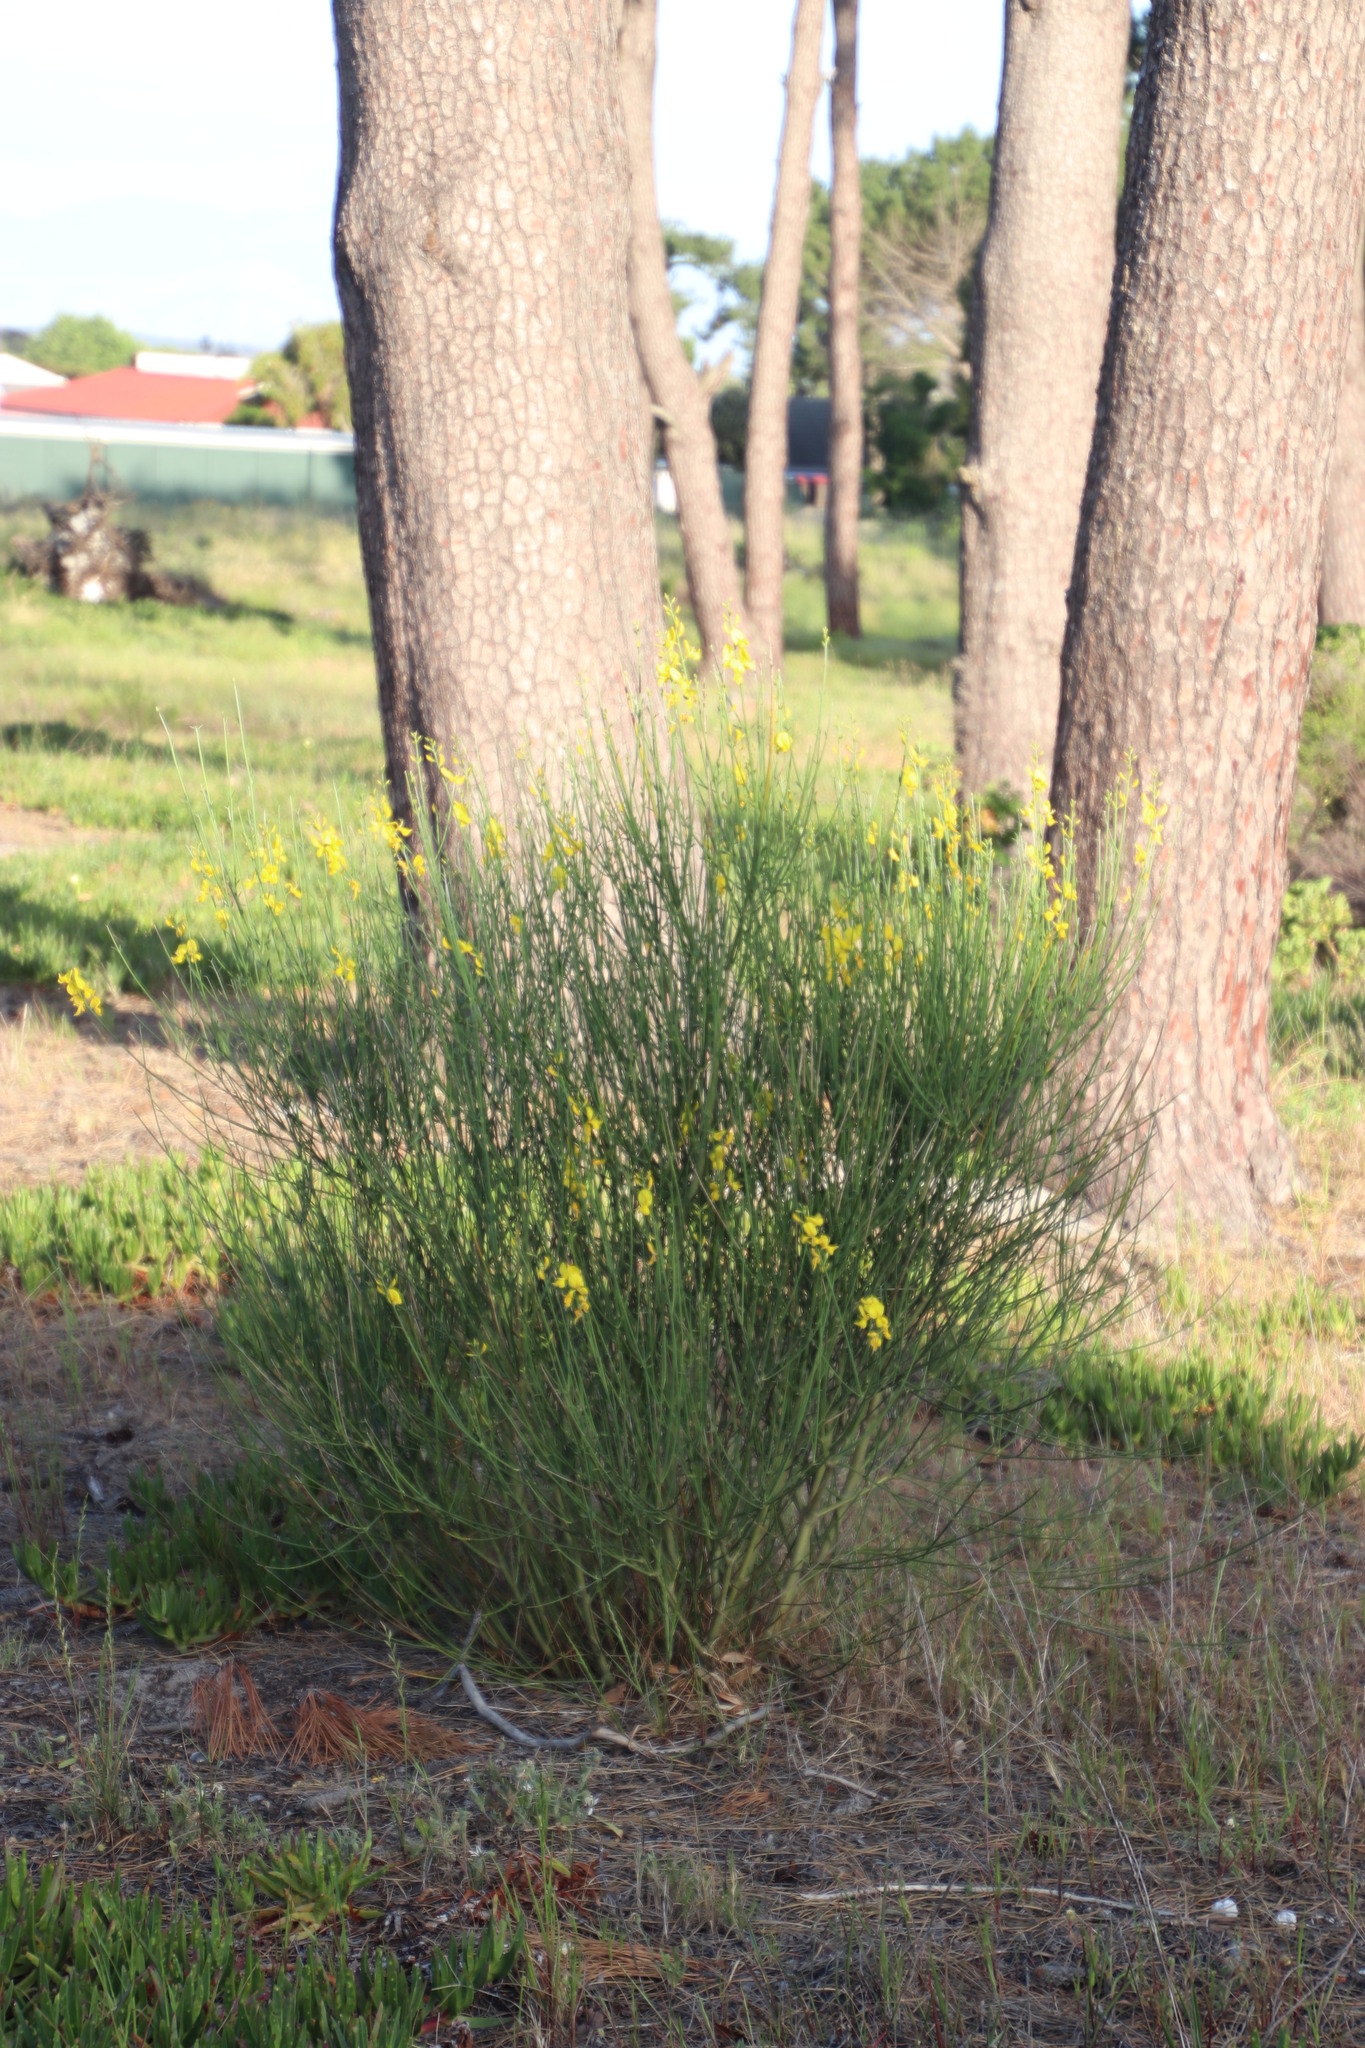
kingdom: Plantae
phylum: Tracheophyta
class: Magnoliopsida
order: Fabales
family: Fabaceae
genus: Spartium
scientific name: Spartium junceum
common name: Spanish broom
